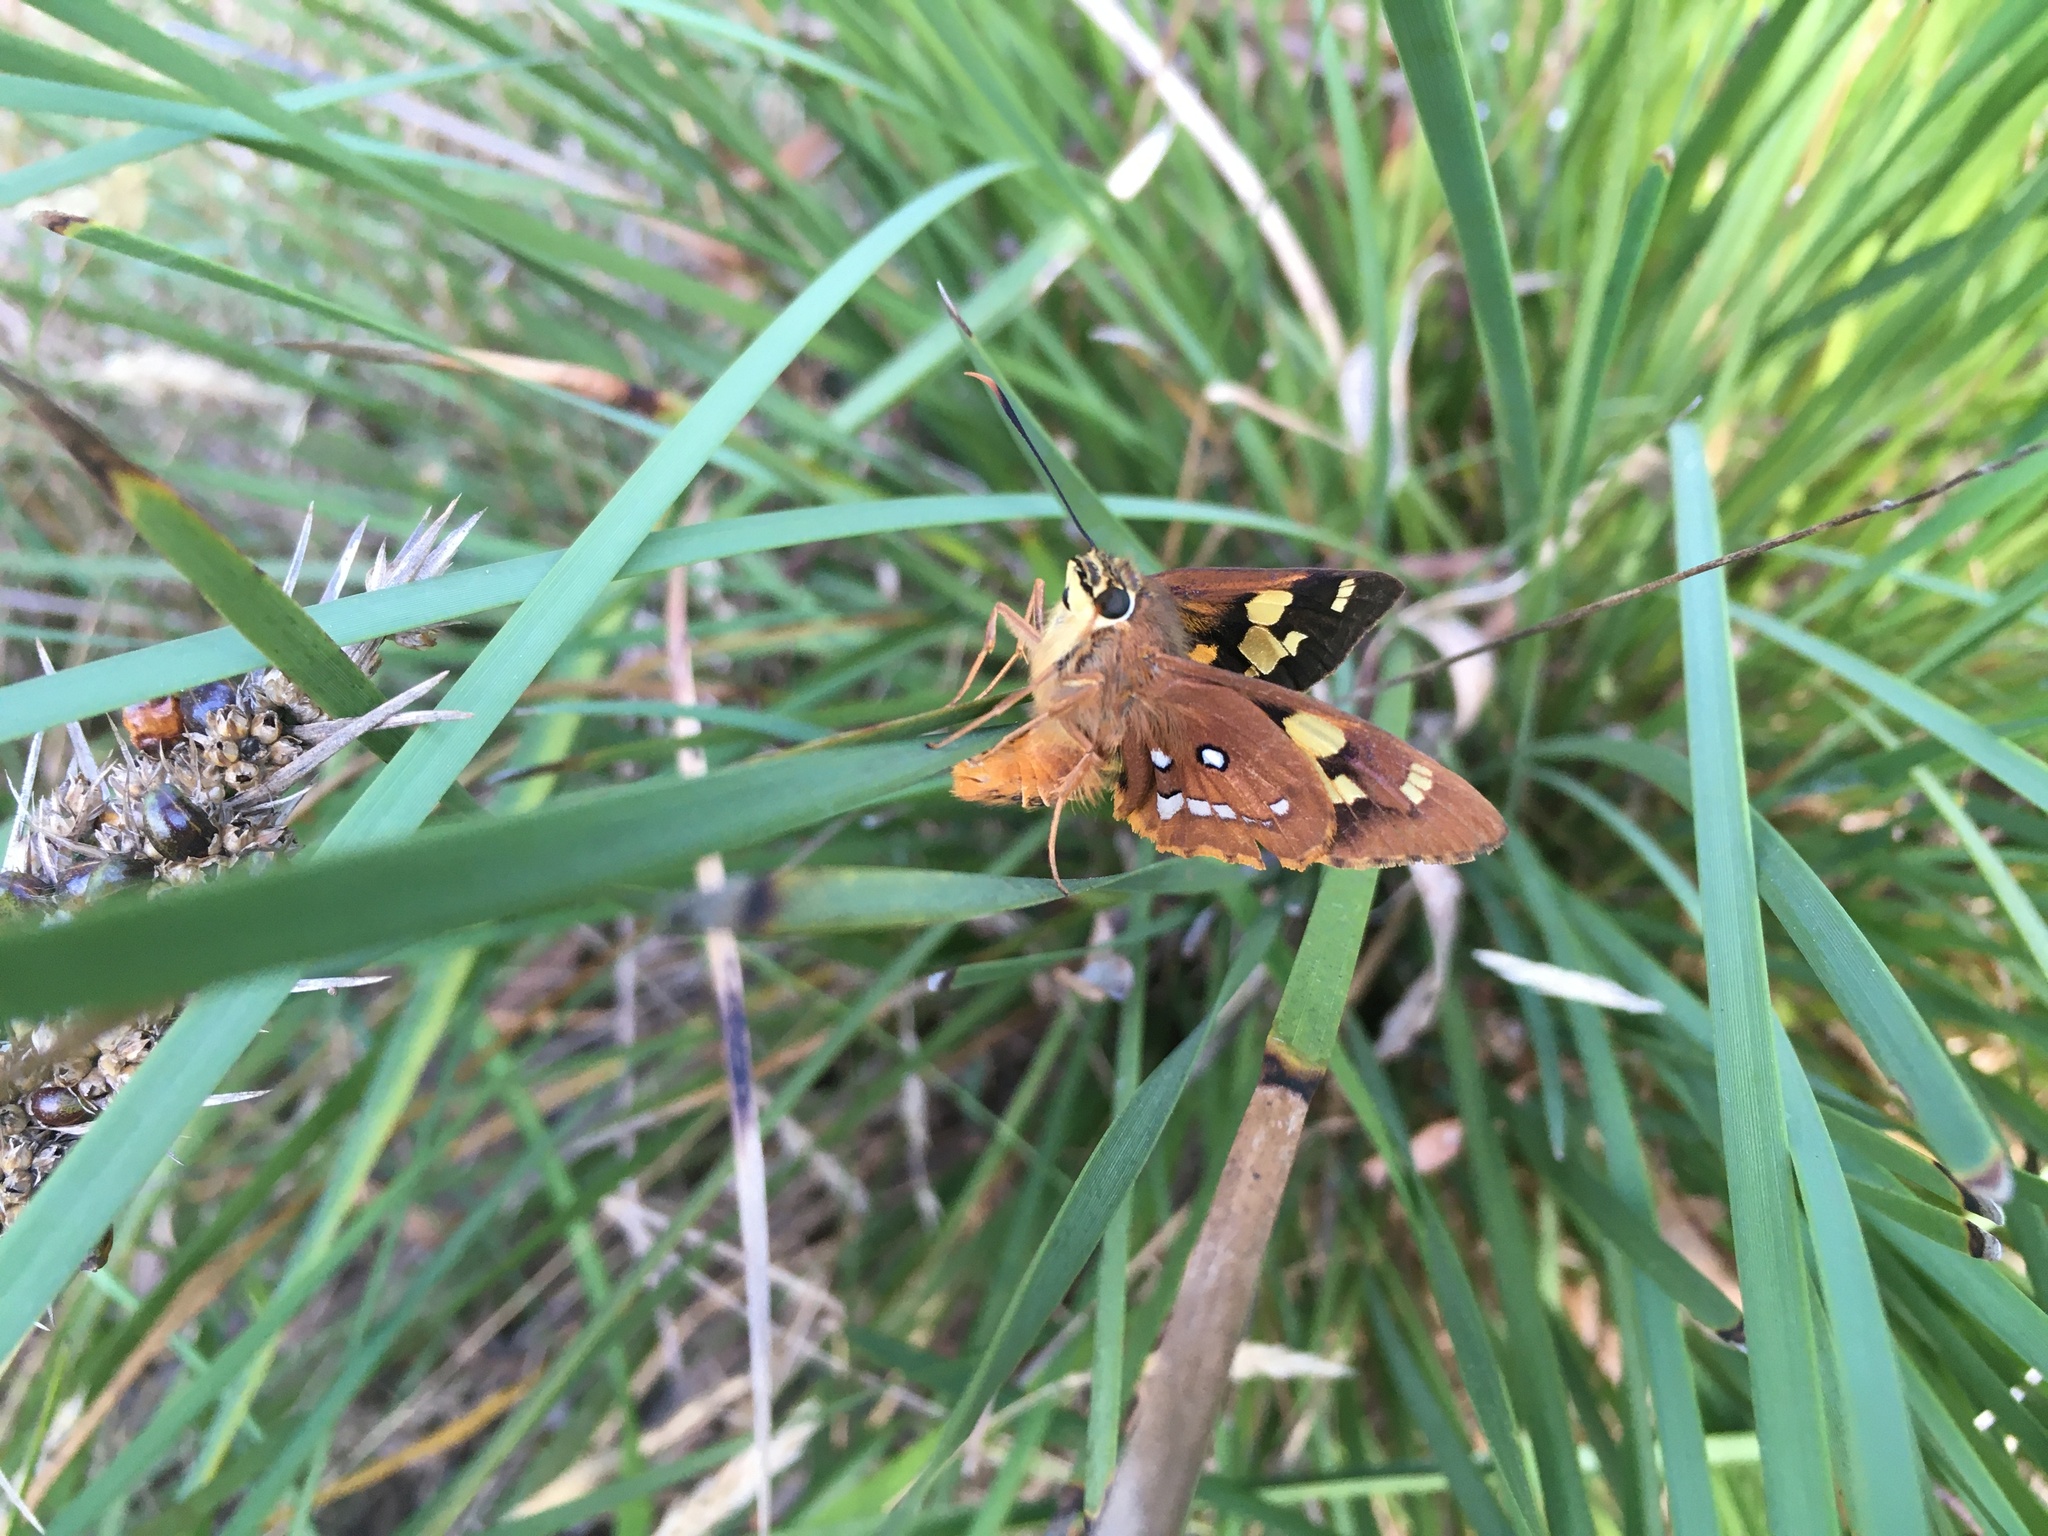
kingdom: Animalia
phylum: Arthropoda
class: Insecta
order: Lepidoptera
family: Hesperiidae
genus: Trapezites
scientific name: Trapezites symmomus
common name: Splendid ochre
